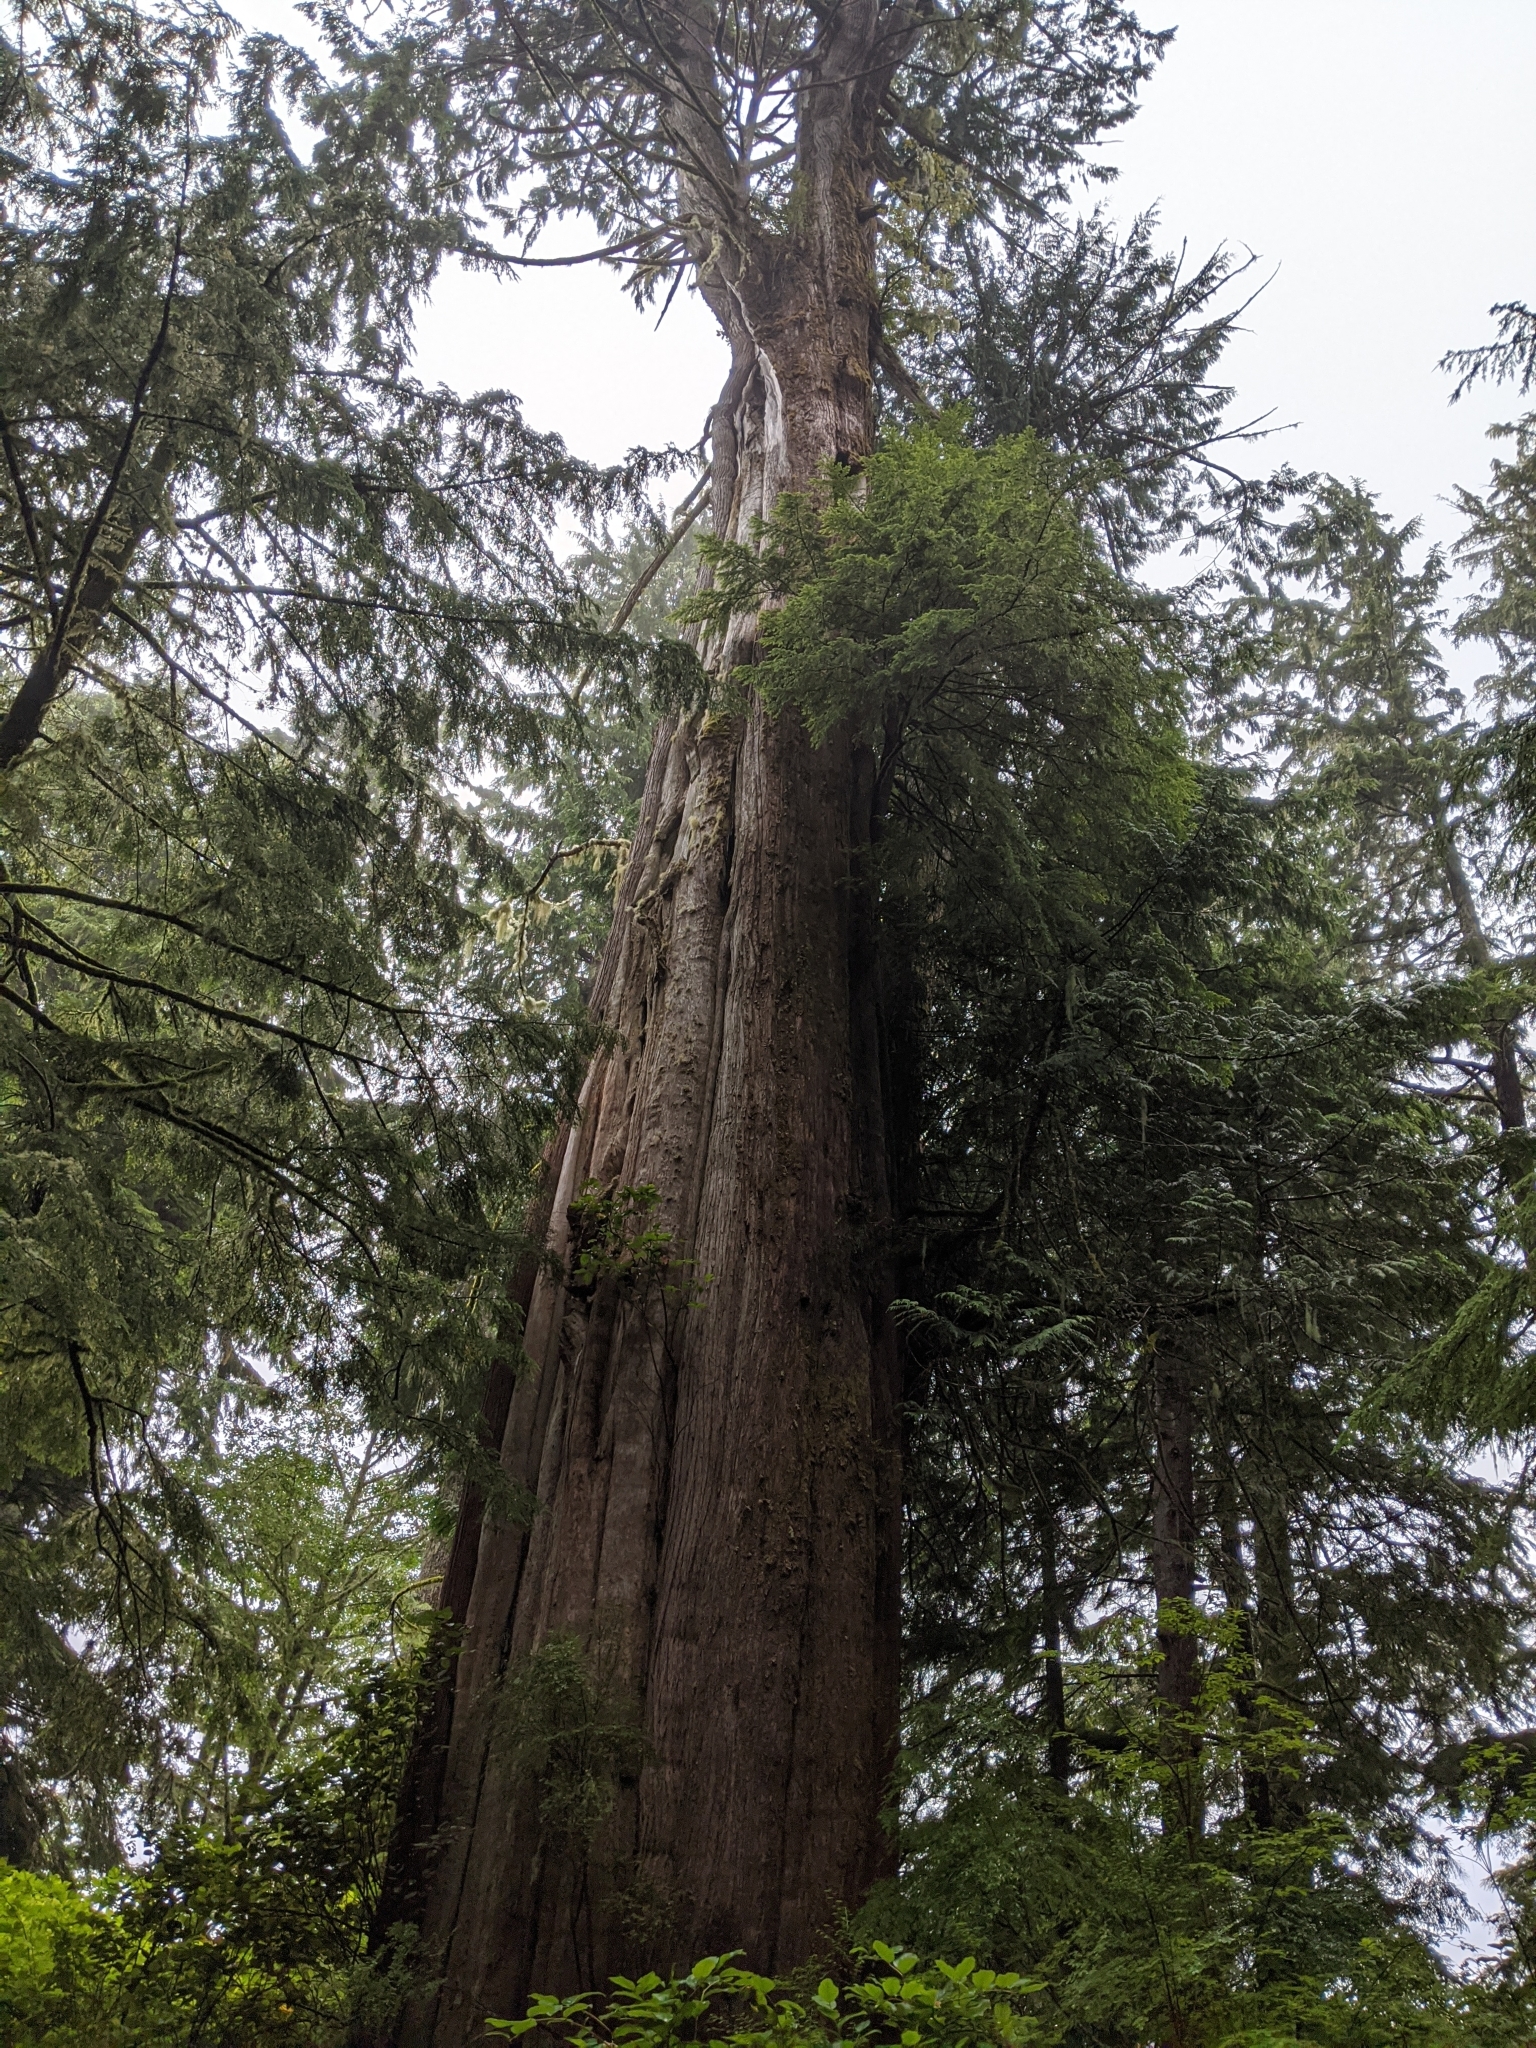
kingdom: Plantae
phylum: Tracheophyta
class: Pinopsida
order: Pinales
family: Cupressaceae
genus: Thuja
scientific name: Thuja plicata
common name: Western red-cedar
